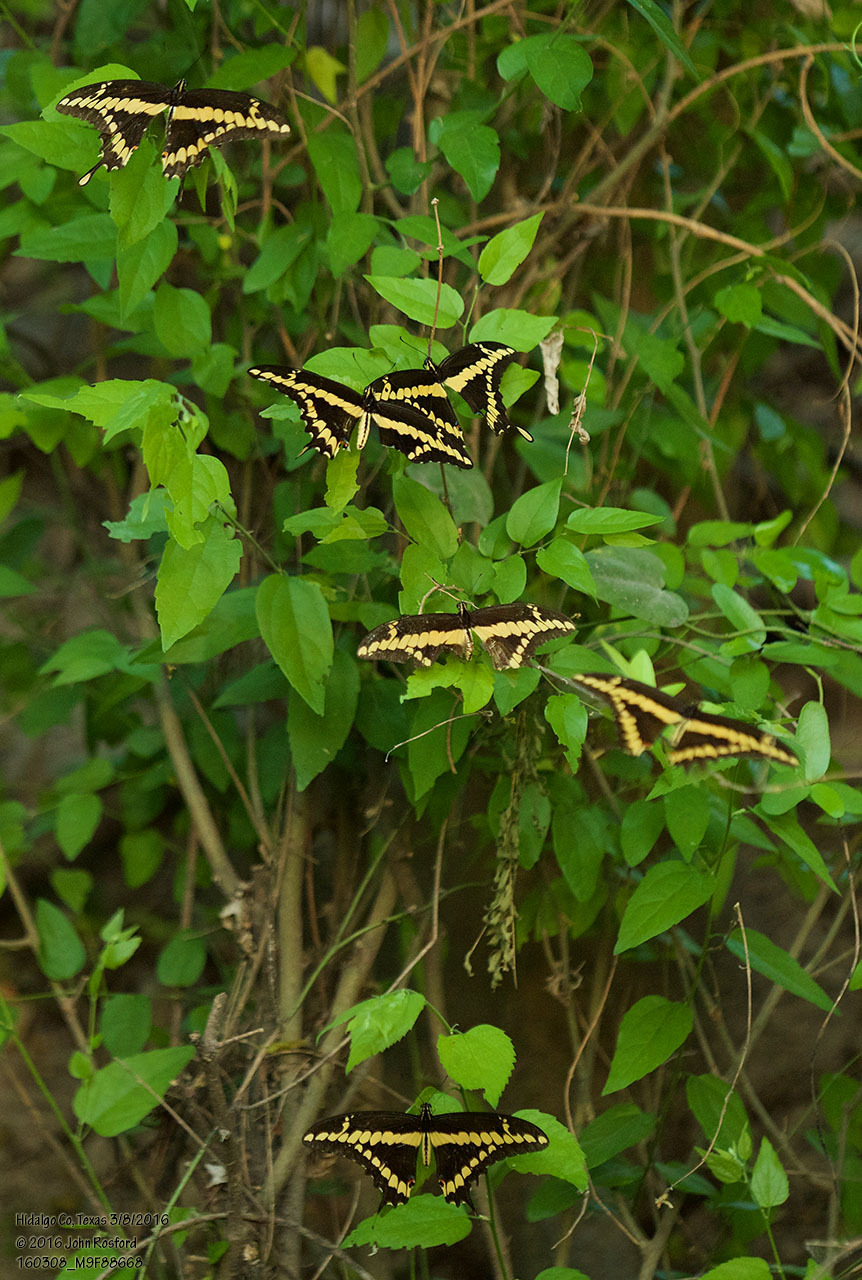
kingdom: Animalia
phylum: Arthropoda
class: Insecta
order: Lepidoptera
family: Papilionidae
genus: Papilio
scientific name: Papilio rumiko
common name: Western giant swallowtail
